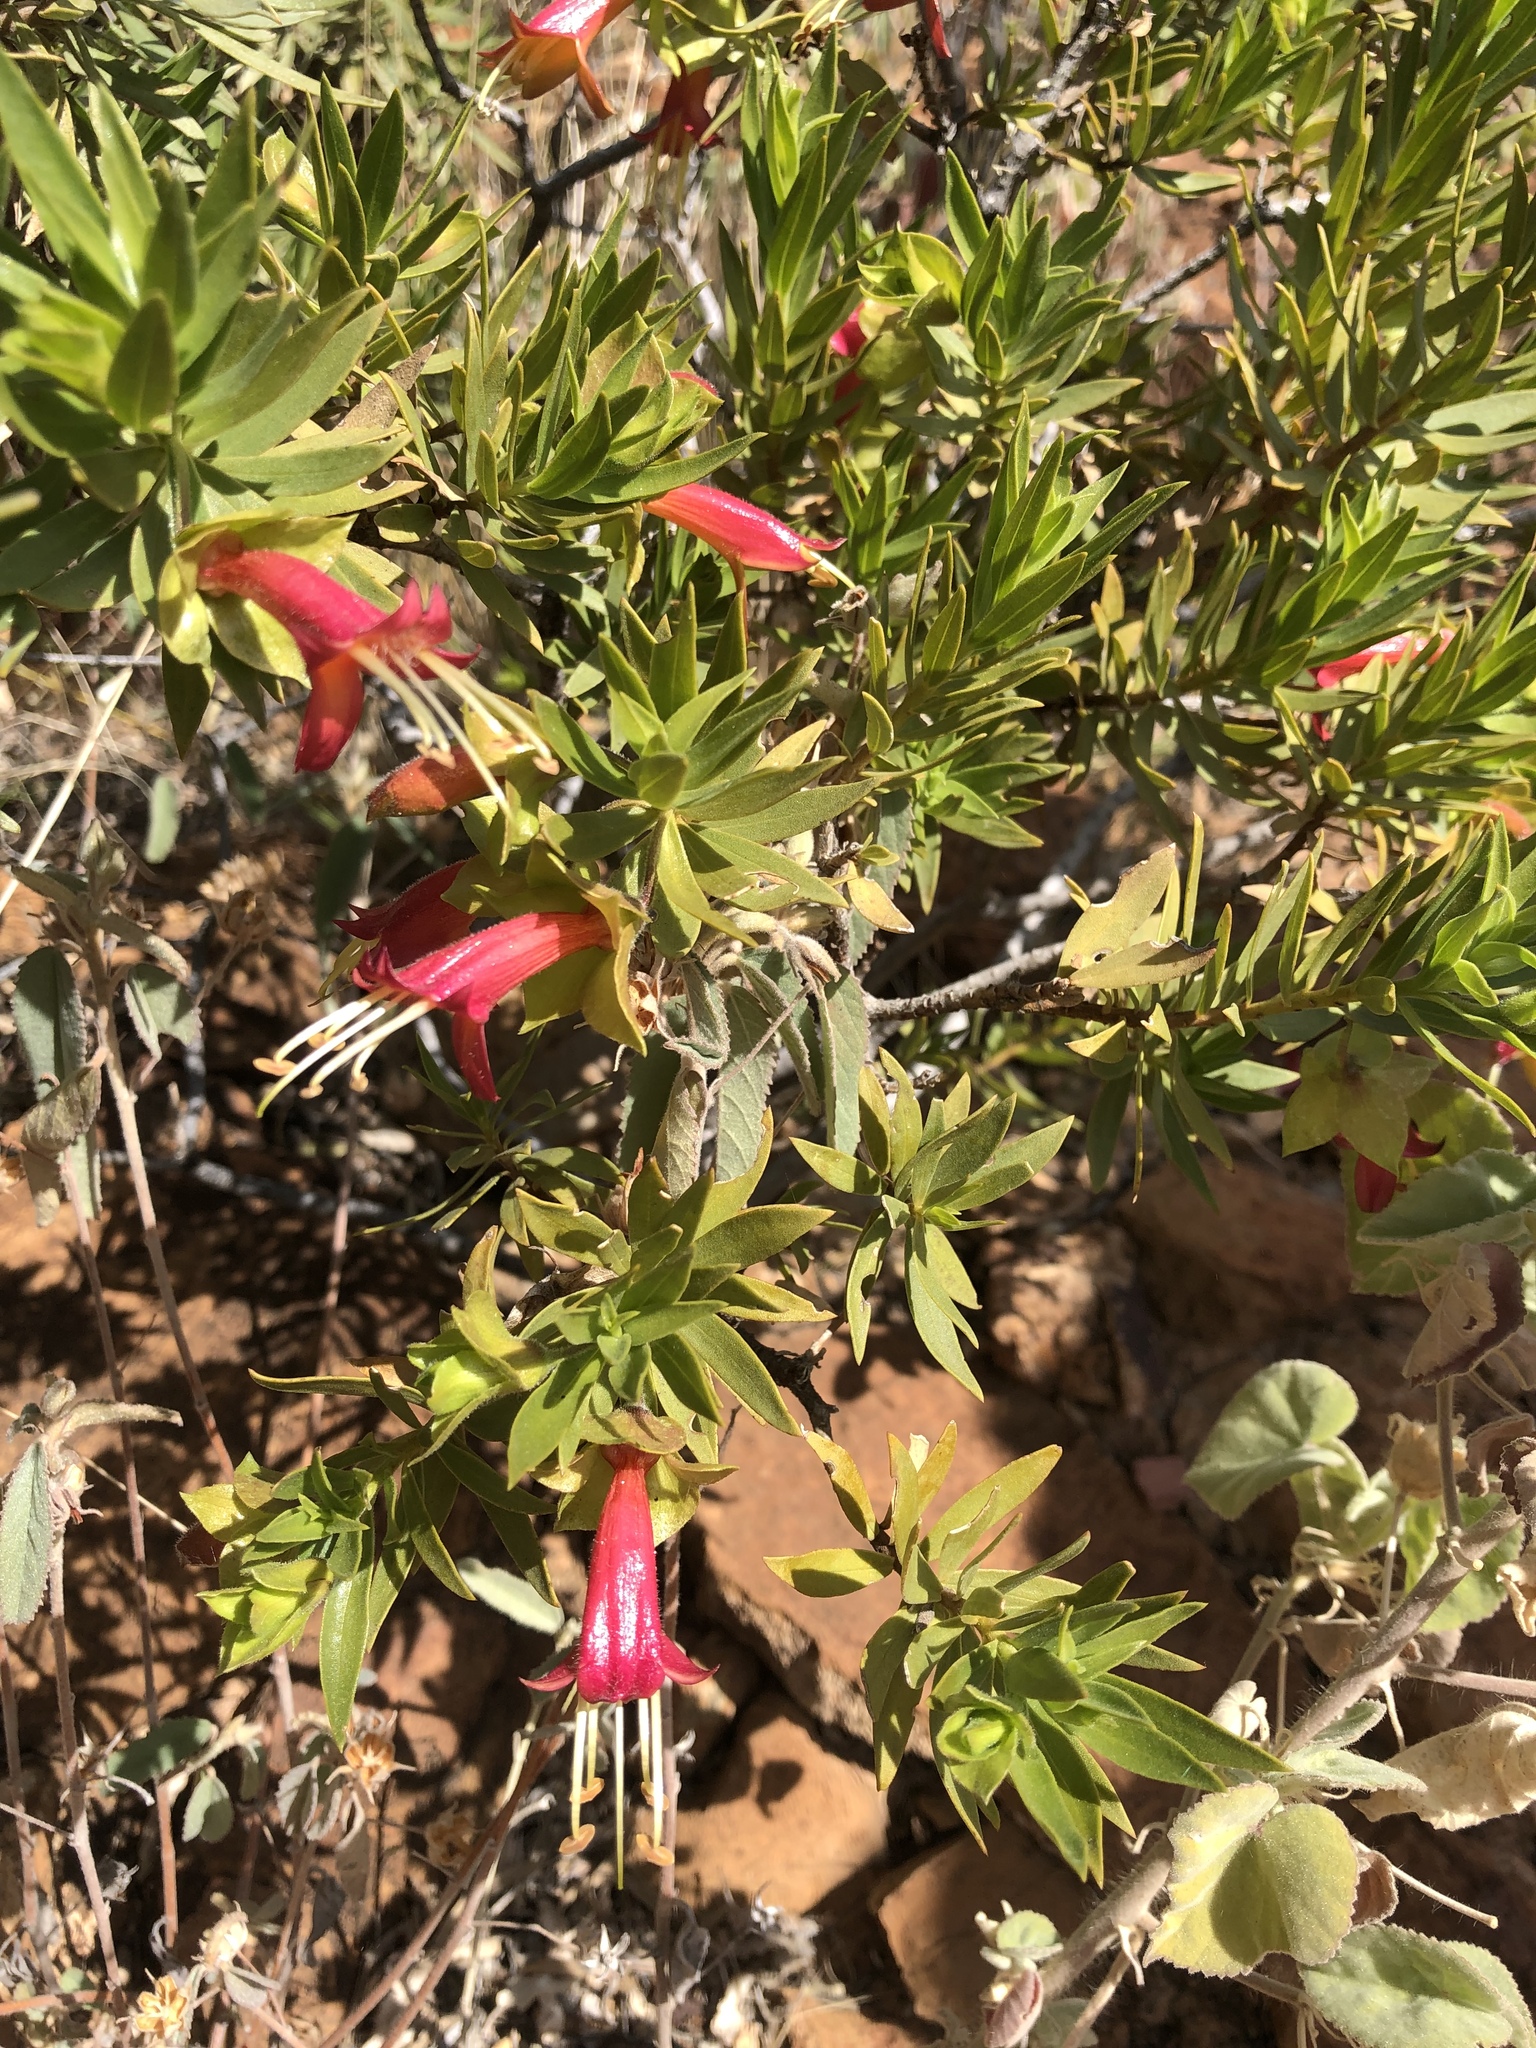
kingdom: Plantae
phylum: Tracheophyta
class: Magnoliopsida
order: Lamiales
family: Scrophulariaceae
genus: Eremophila
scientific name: Eremophila duttonii
